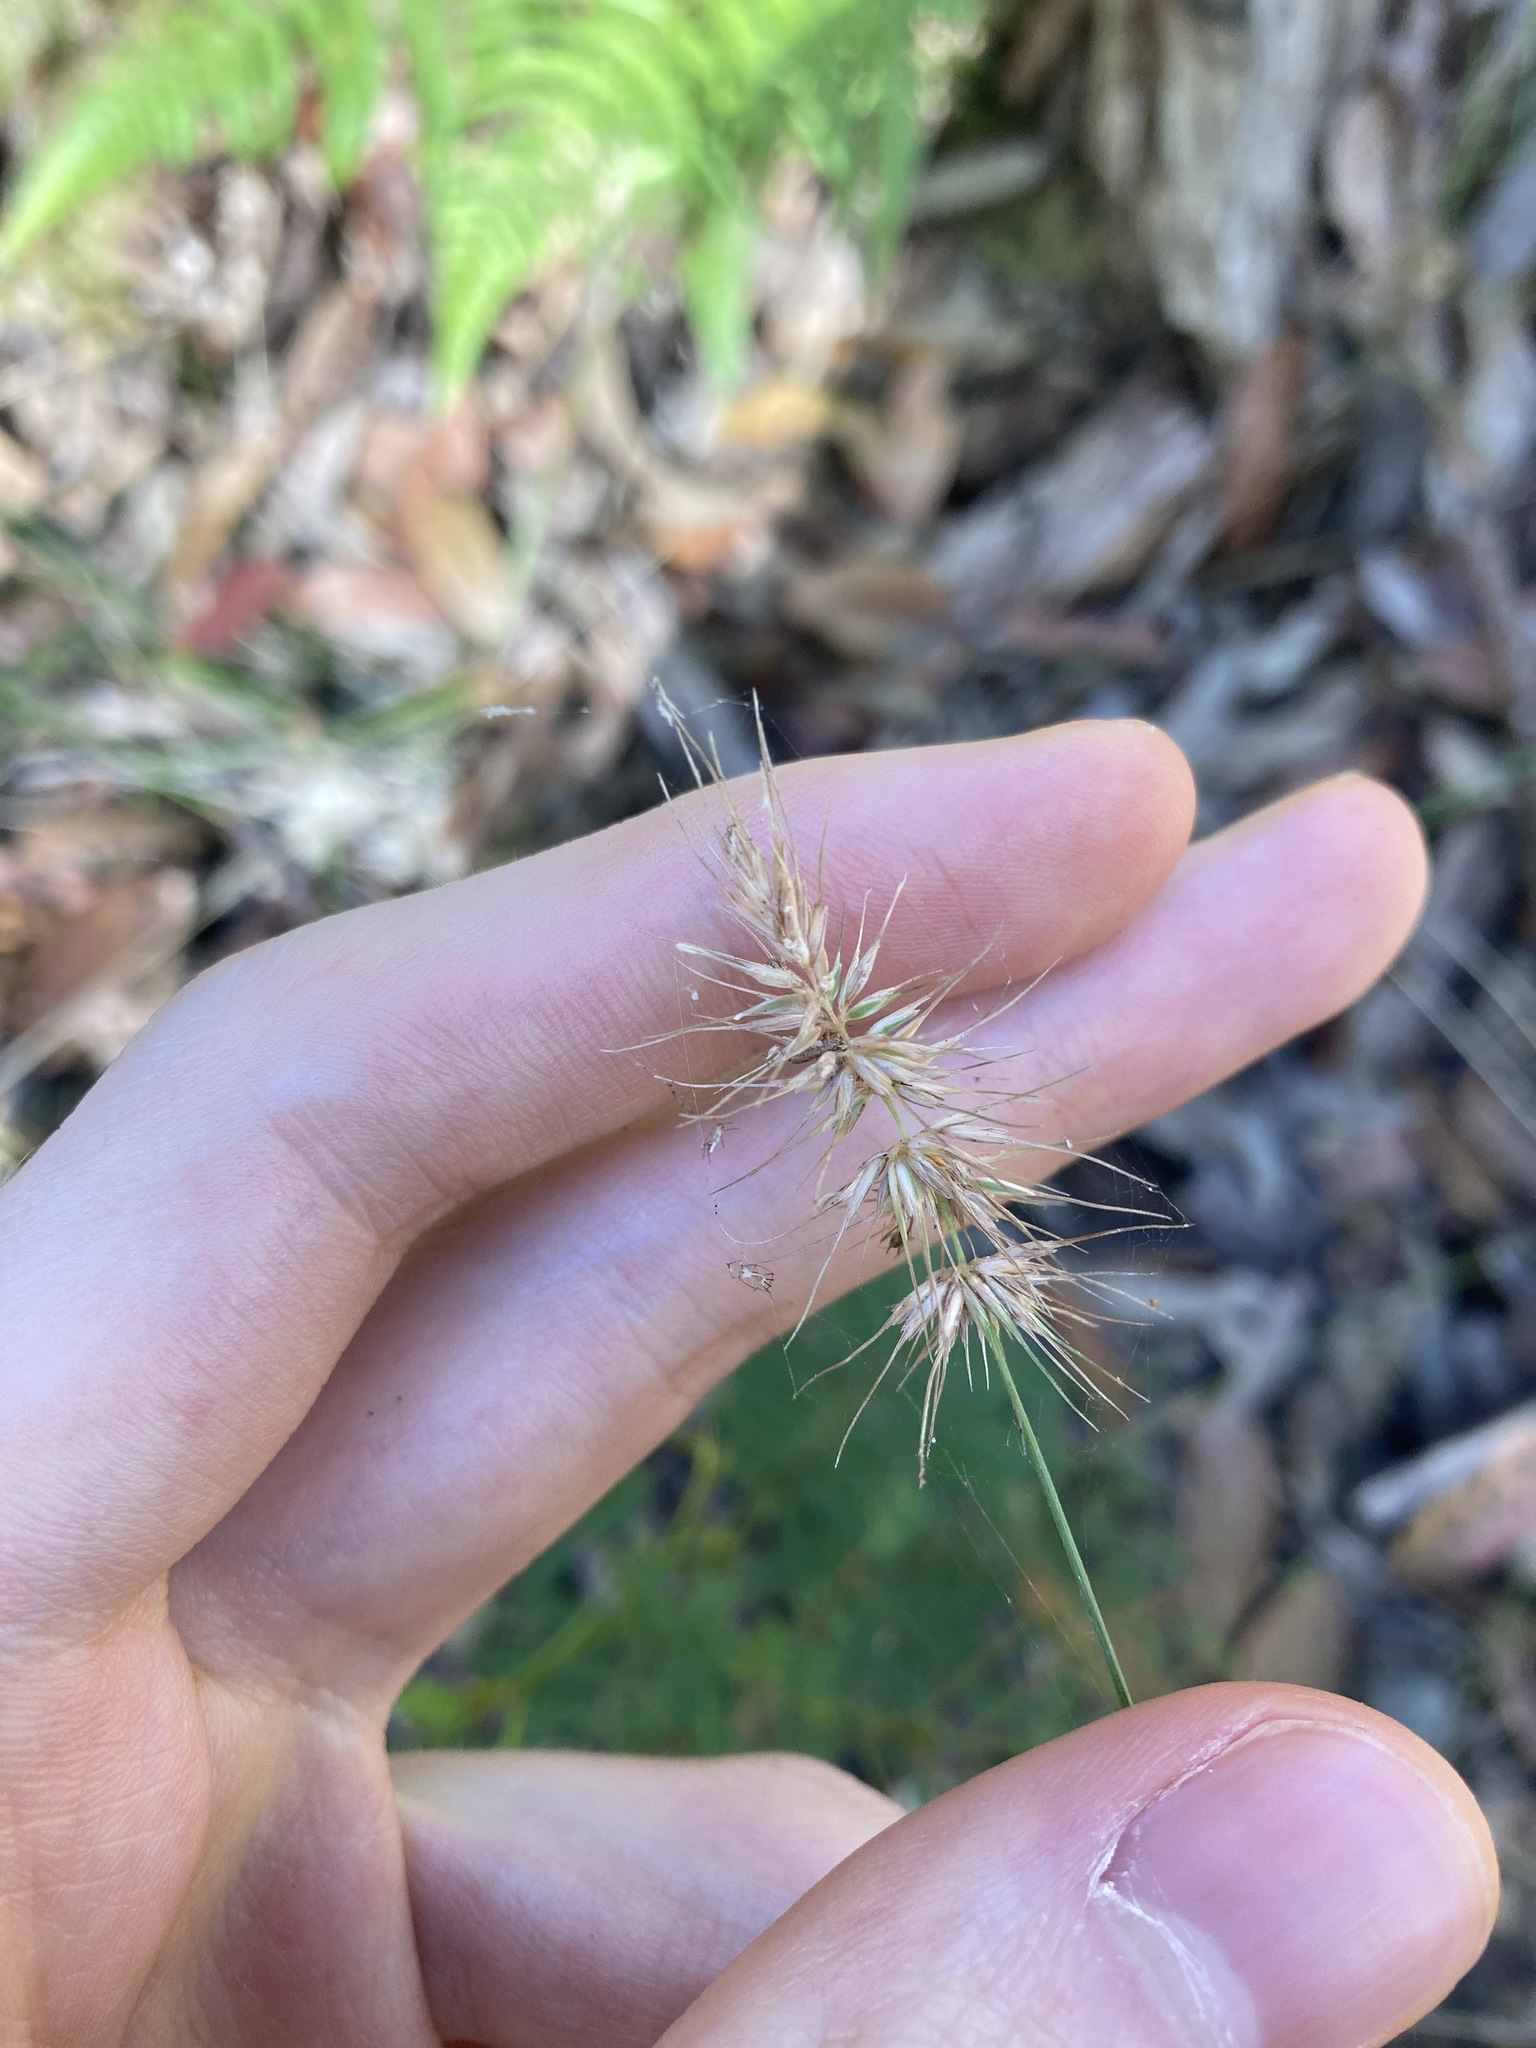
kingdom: Plantae
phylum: Tracheophyta
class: Liliopsida
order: Poales
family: Poaceae
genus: Echinopogon
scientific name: Echinopogon caespitosus
